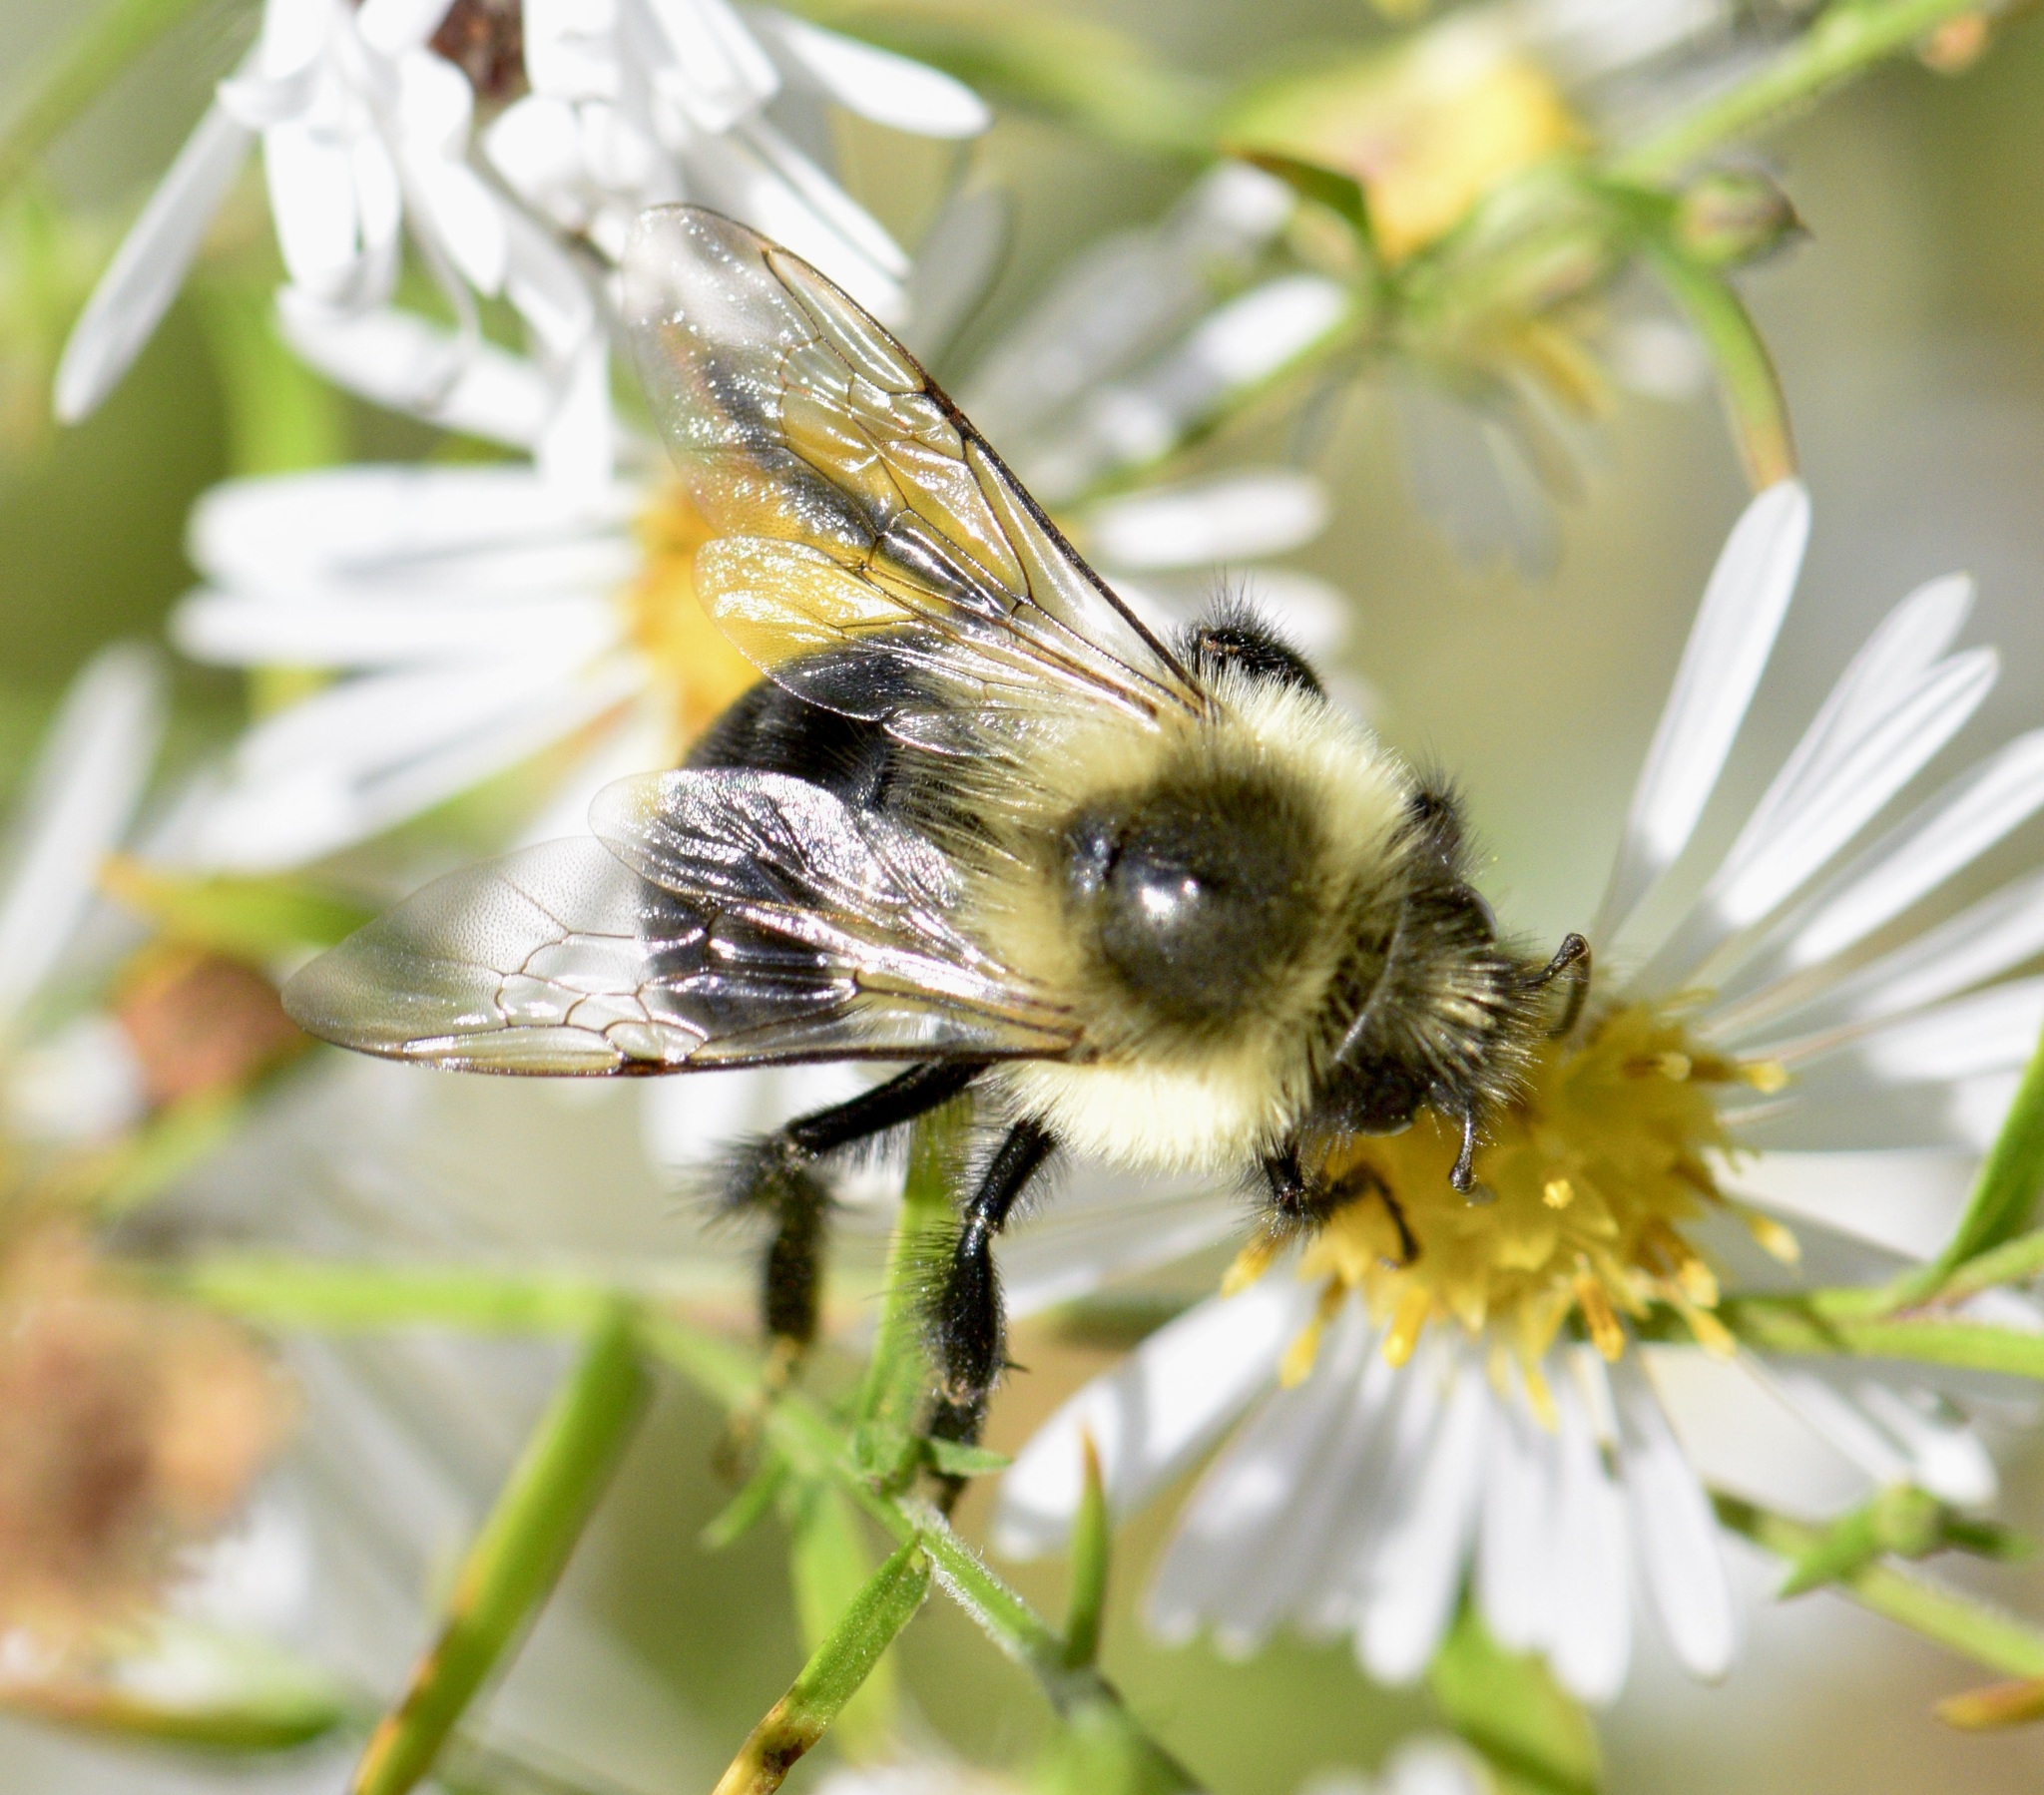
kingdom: Animalia
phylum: Arthropoda
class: Insecta
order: Hymenoptera
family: Apidae
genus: Bombus
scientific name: Bombus impatiens
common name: Common eastern bumble bee
